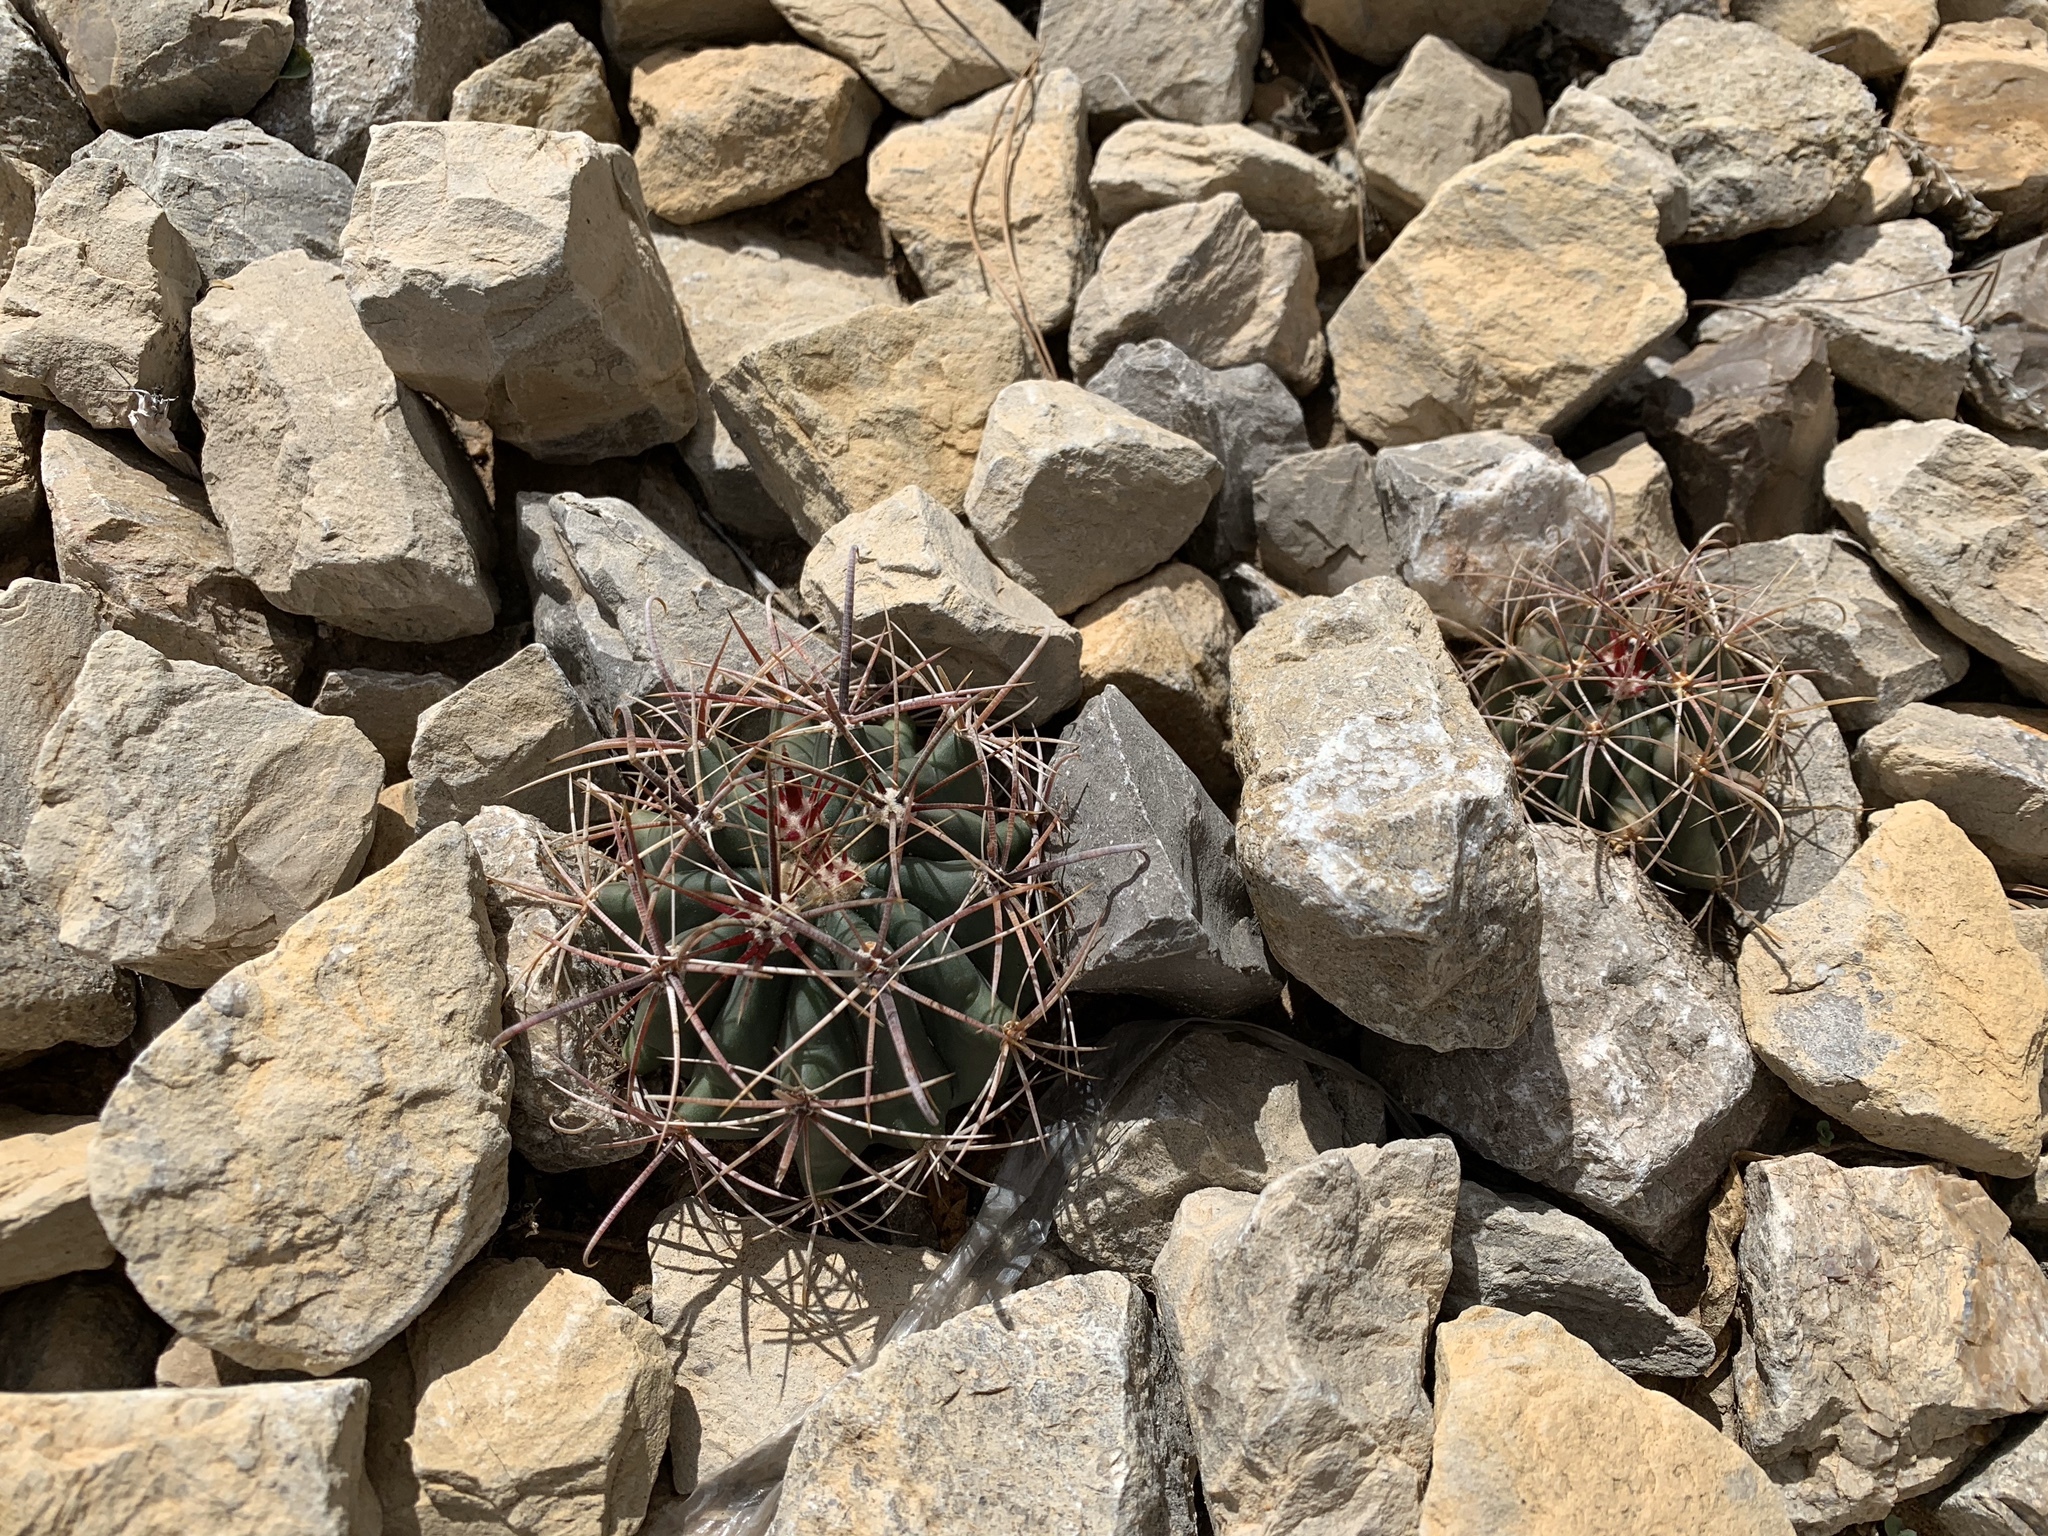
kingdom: Plantae
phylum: Tracheophyta
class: Magnoliopsida
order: Caryophyllales
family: Cactaceae
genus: Ferocactus
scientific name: Ferocactus wislizeni
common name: Candy barrel cactus
